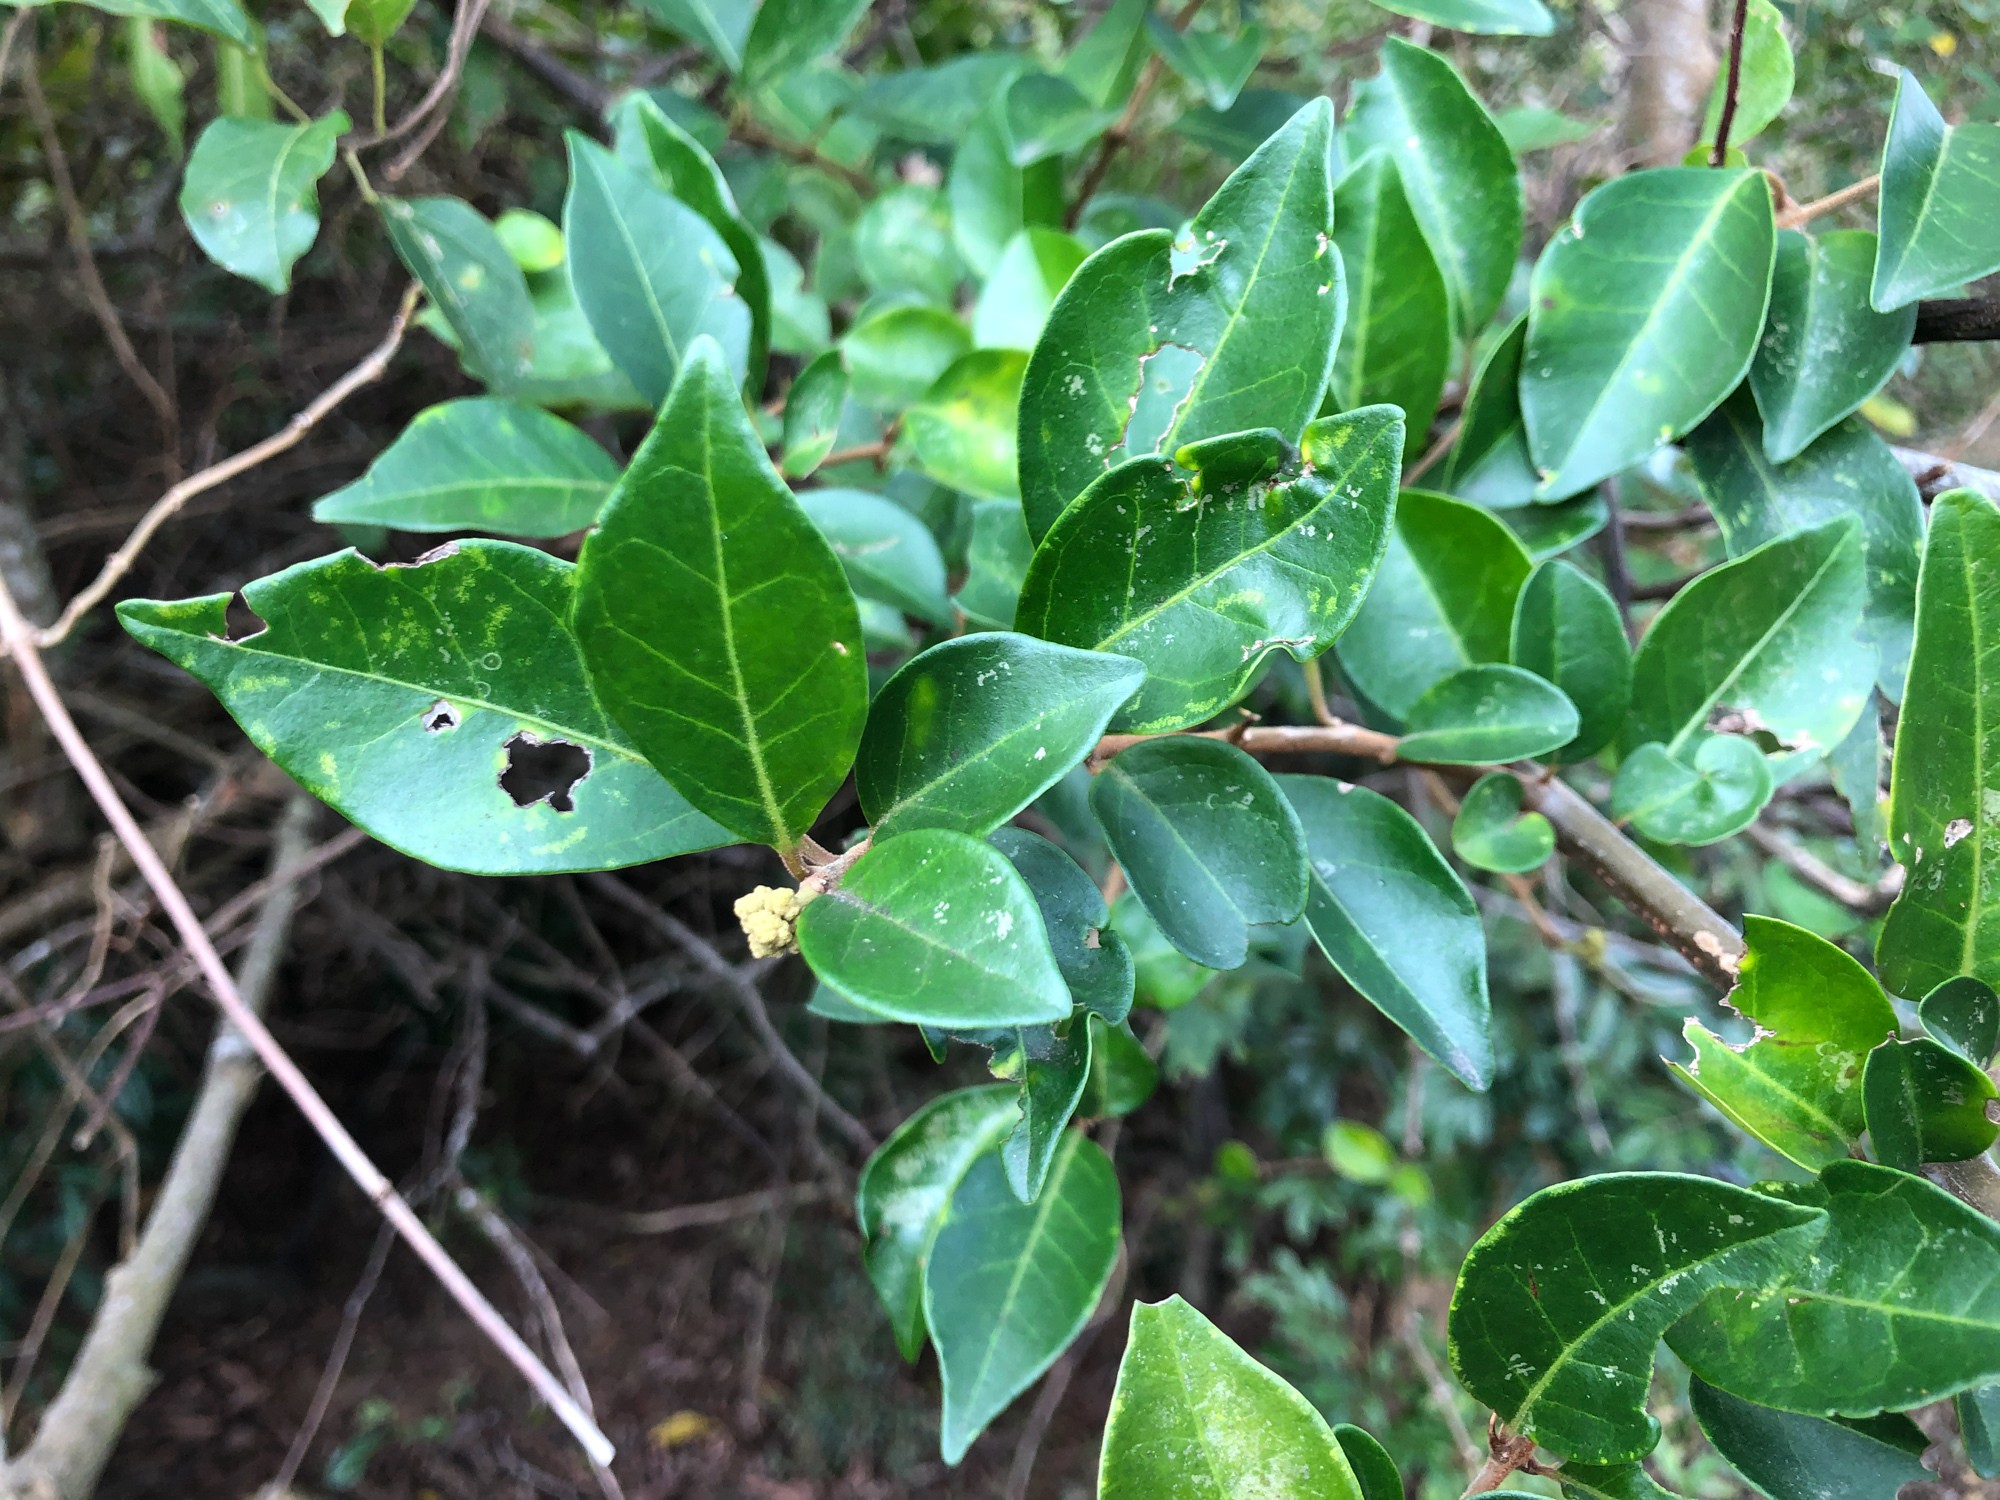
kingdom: Plantae
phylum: Tracheophyta
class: Magnoliopsida
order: Caryophyllales
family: Nyctaginaceae
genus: Pisonia
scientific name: Pisonia aculeata
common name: Cockspur vine
